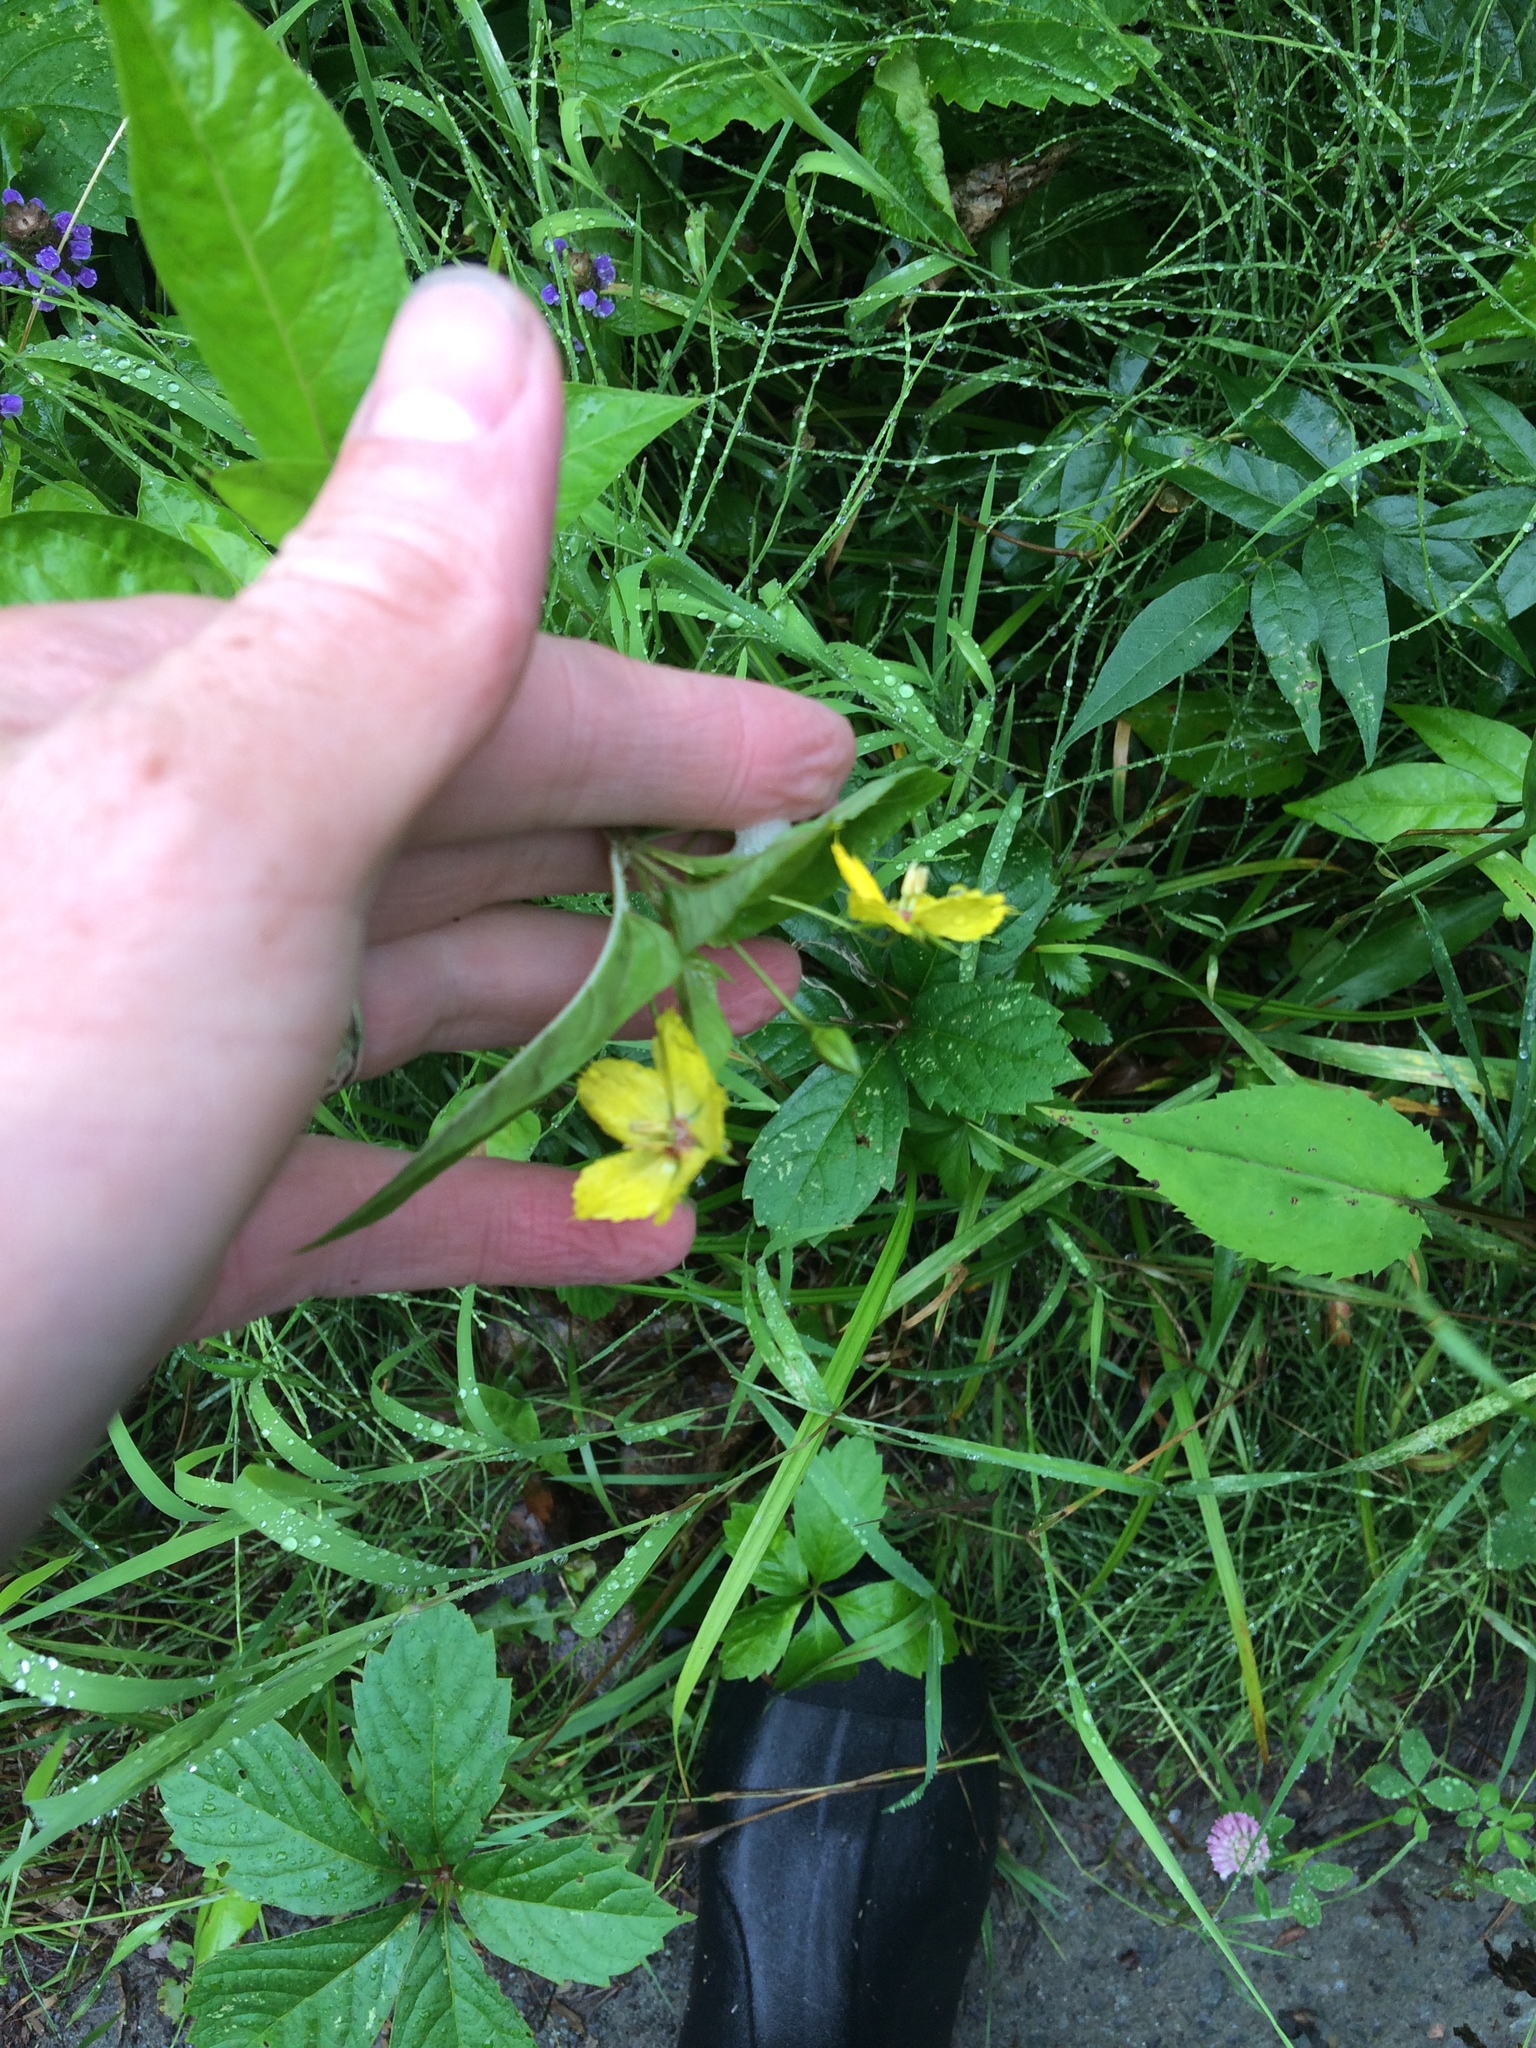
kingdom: Plantae
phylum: Tracheophyta
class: Magnoliopsida
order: Ericales
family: Primulaceae
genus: Lysimachia
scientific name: Lysimachia ciliata
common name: Fringed loosestrife
